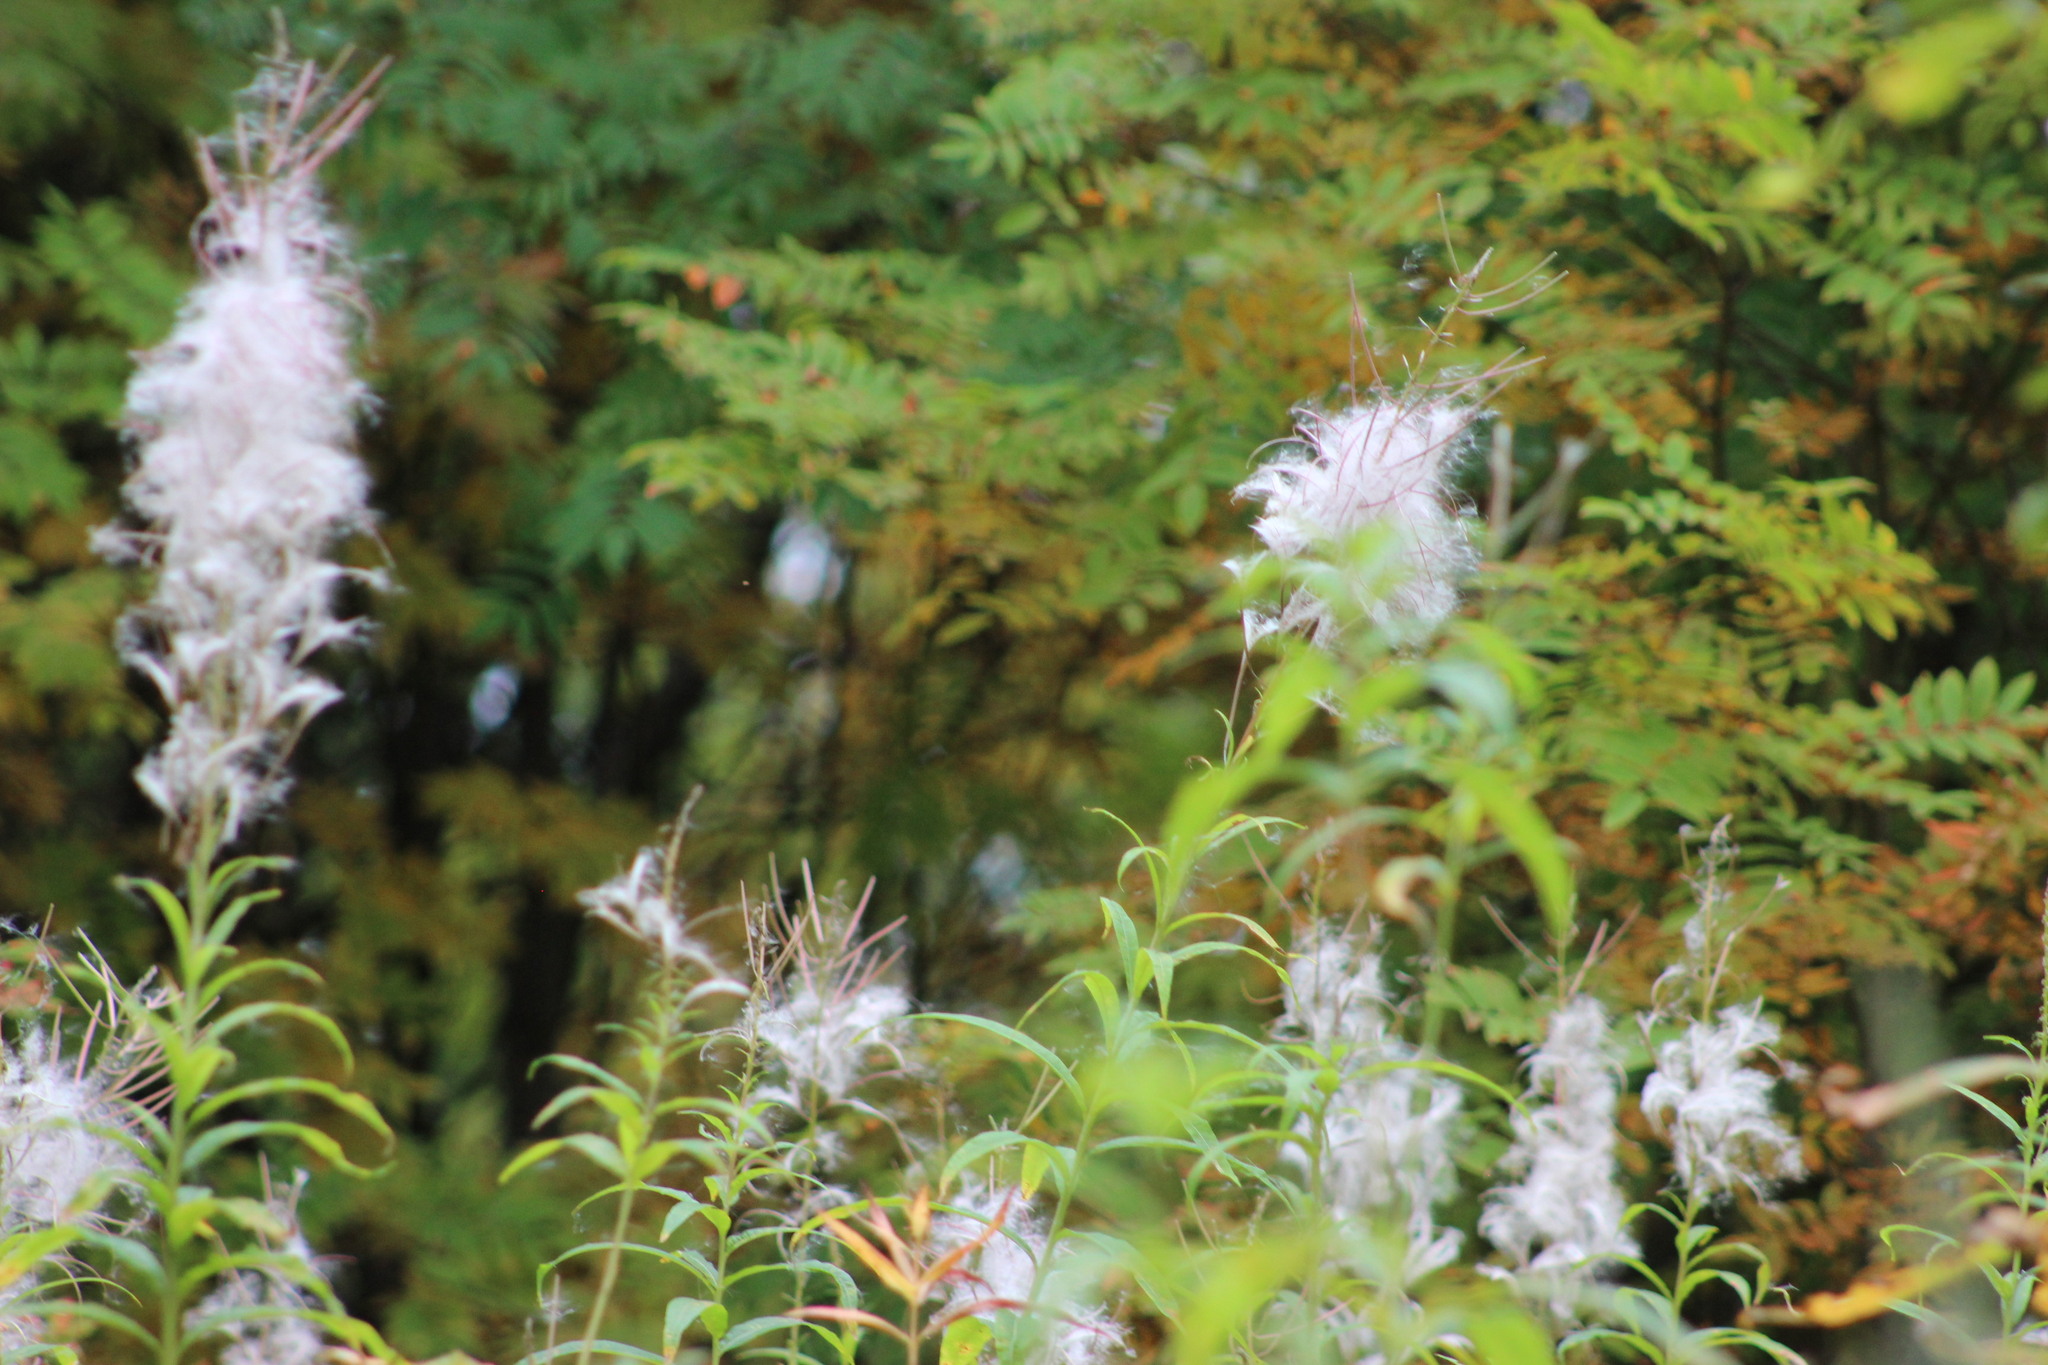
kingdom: Plantae
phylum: Tracheophyta
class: Magnoliopsida
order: Myrtales
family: Onagraceae
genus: Chamaenerion
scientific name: Chamaenerion angustifolium
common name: Fireweed
